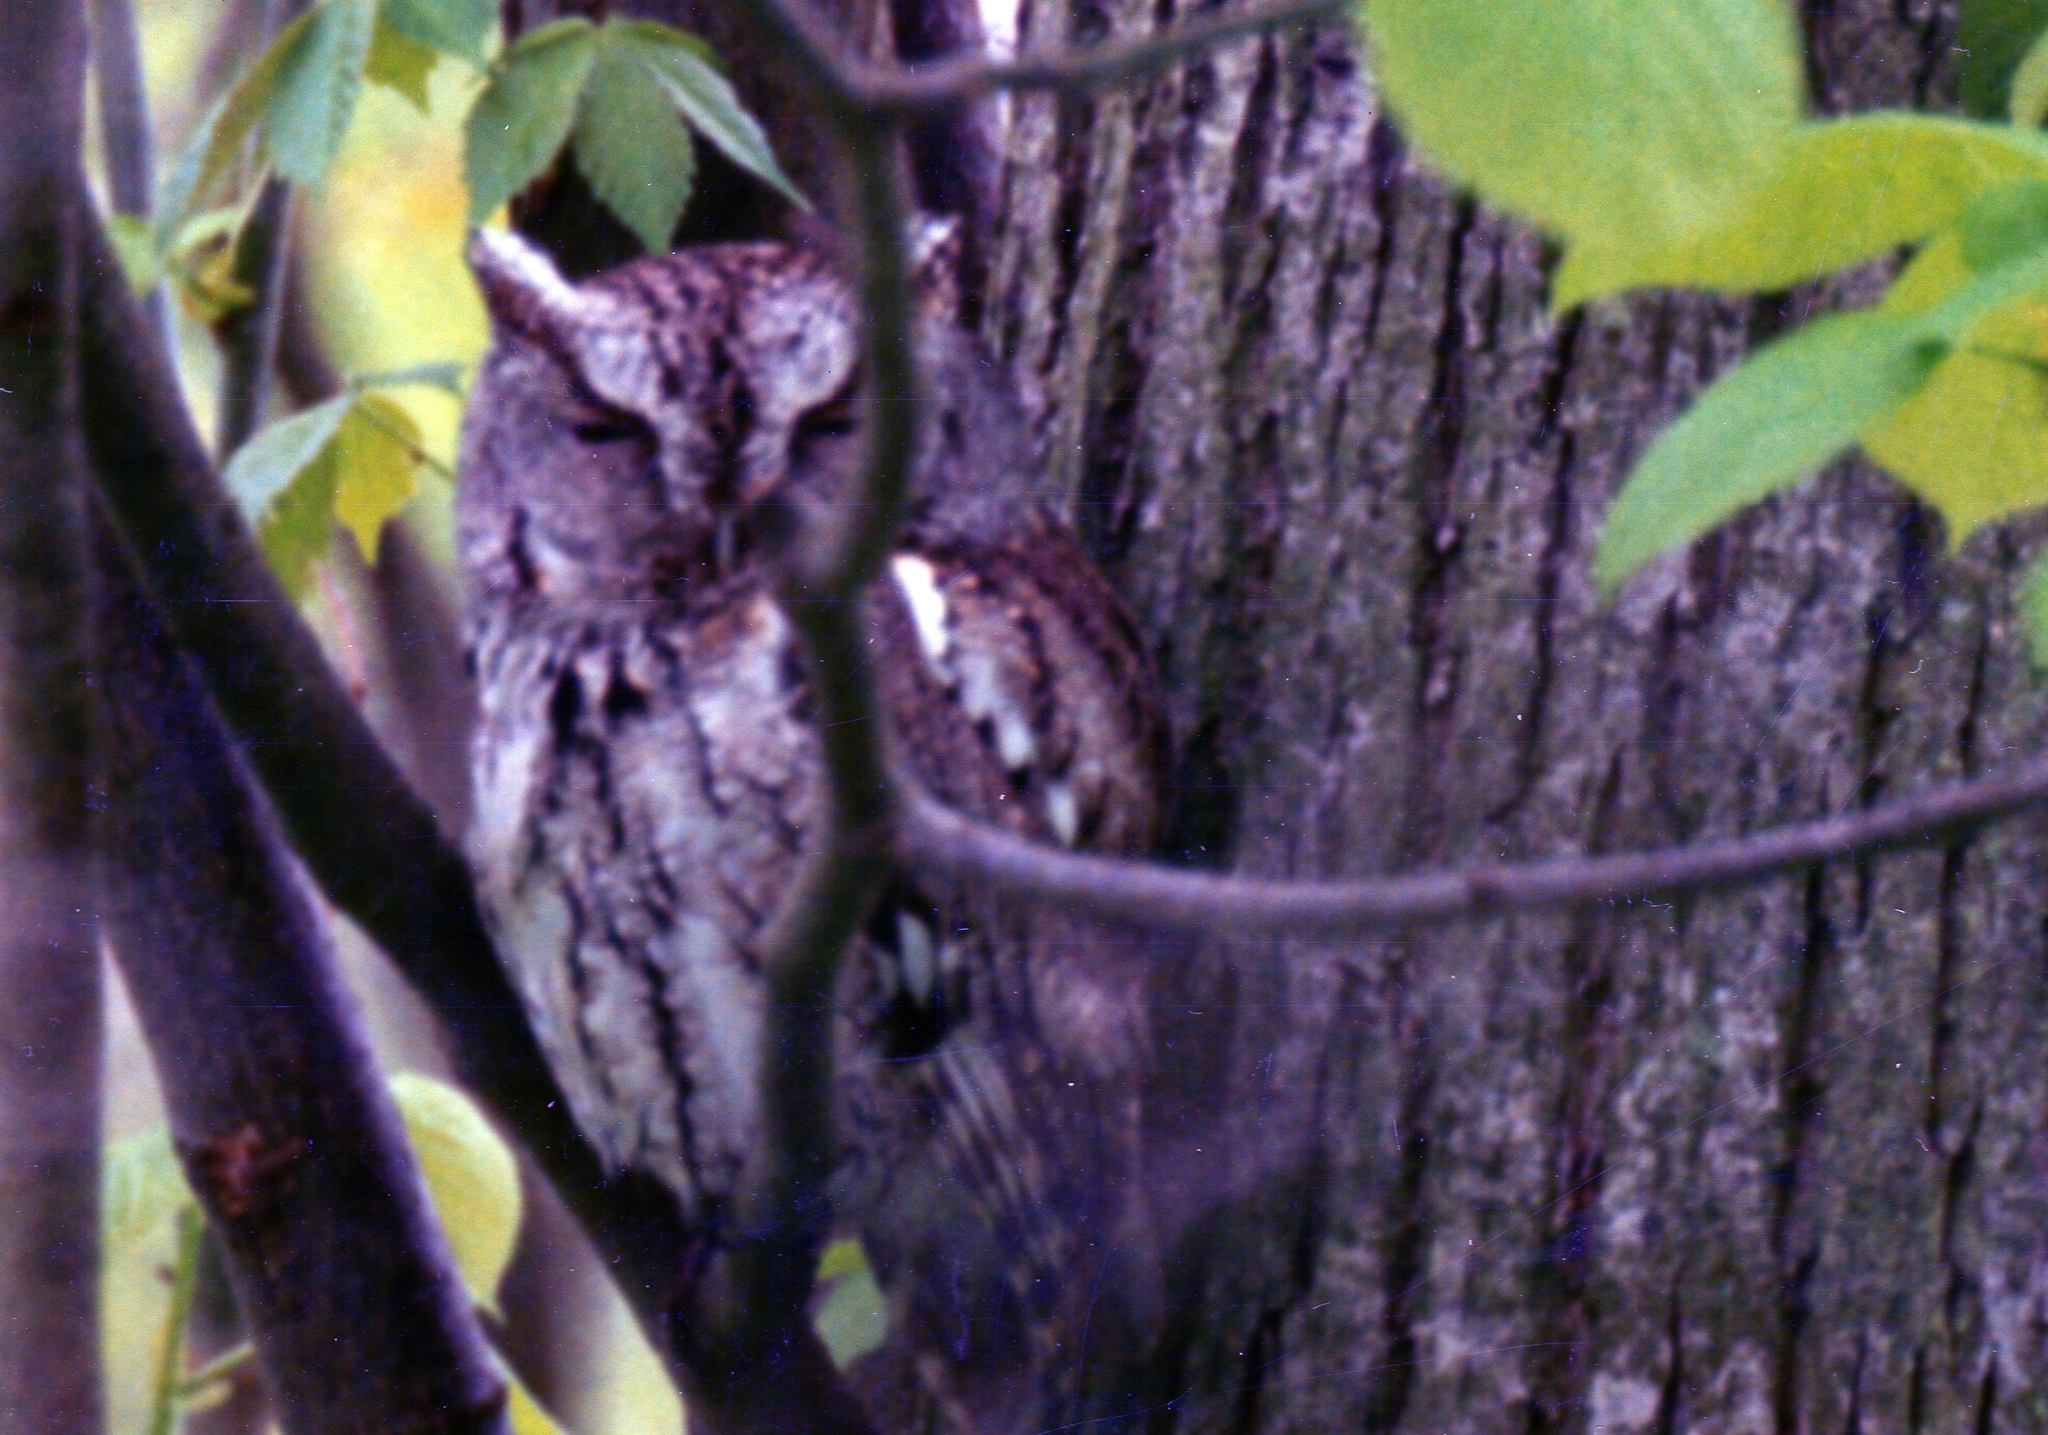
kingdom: Animalia
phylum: Chordata
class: Aves
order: Strigiformes
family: Strigidae
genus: Megascops
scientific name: Megascops asio
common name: Eastern screech-owl
